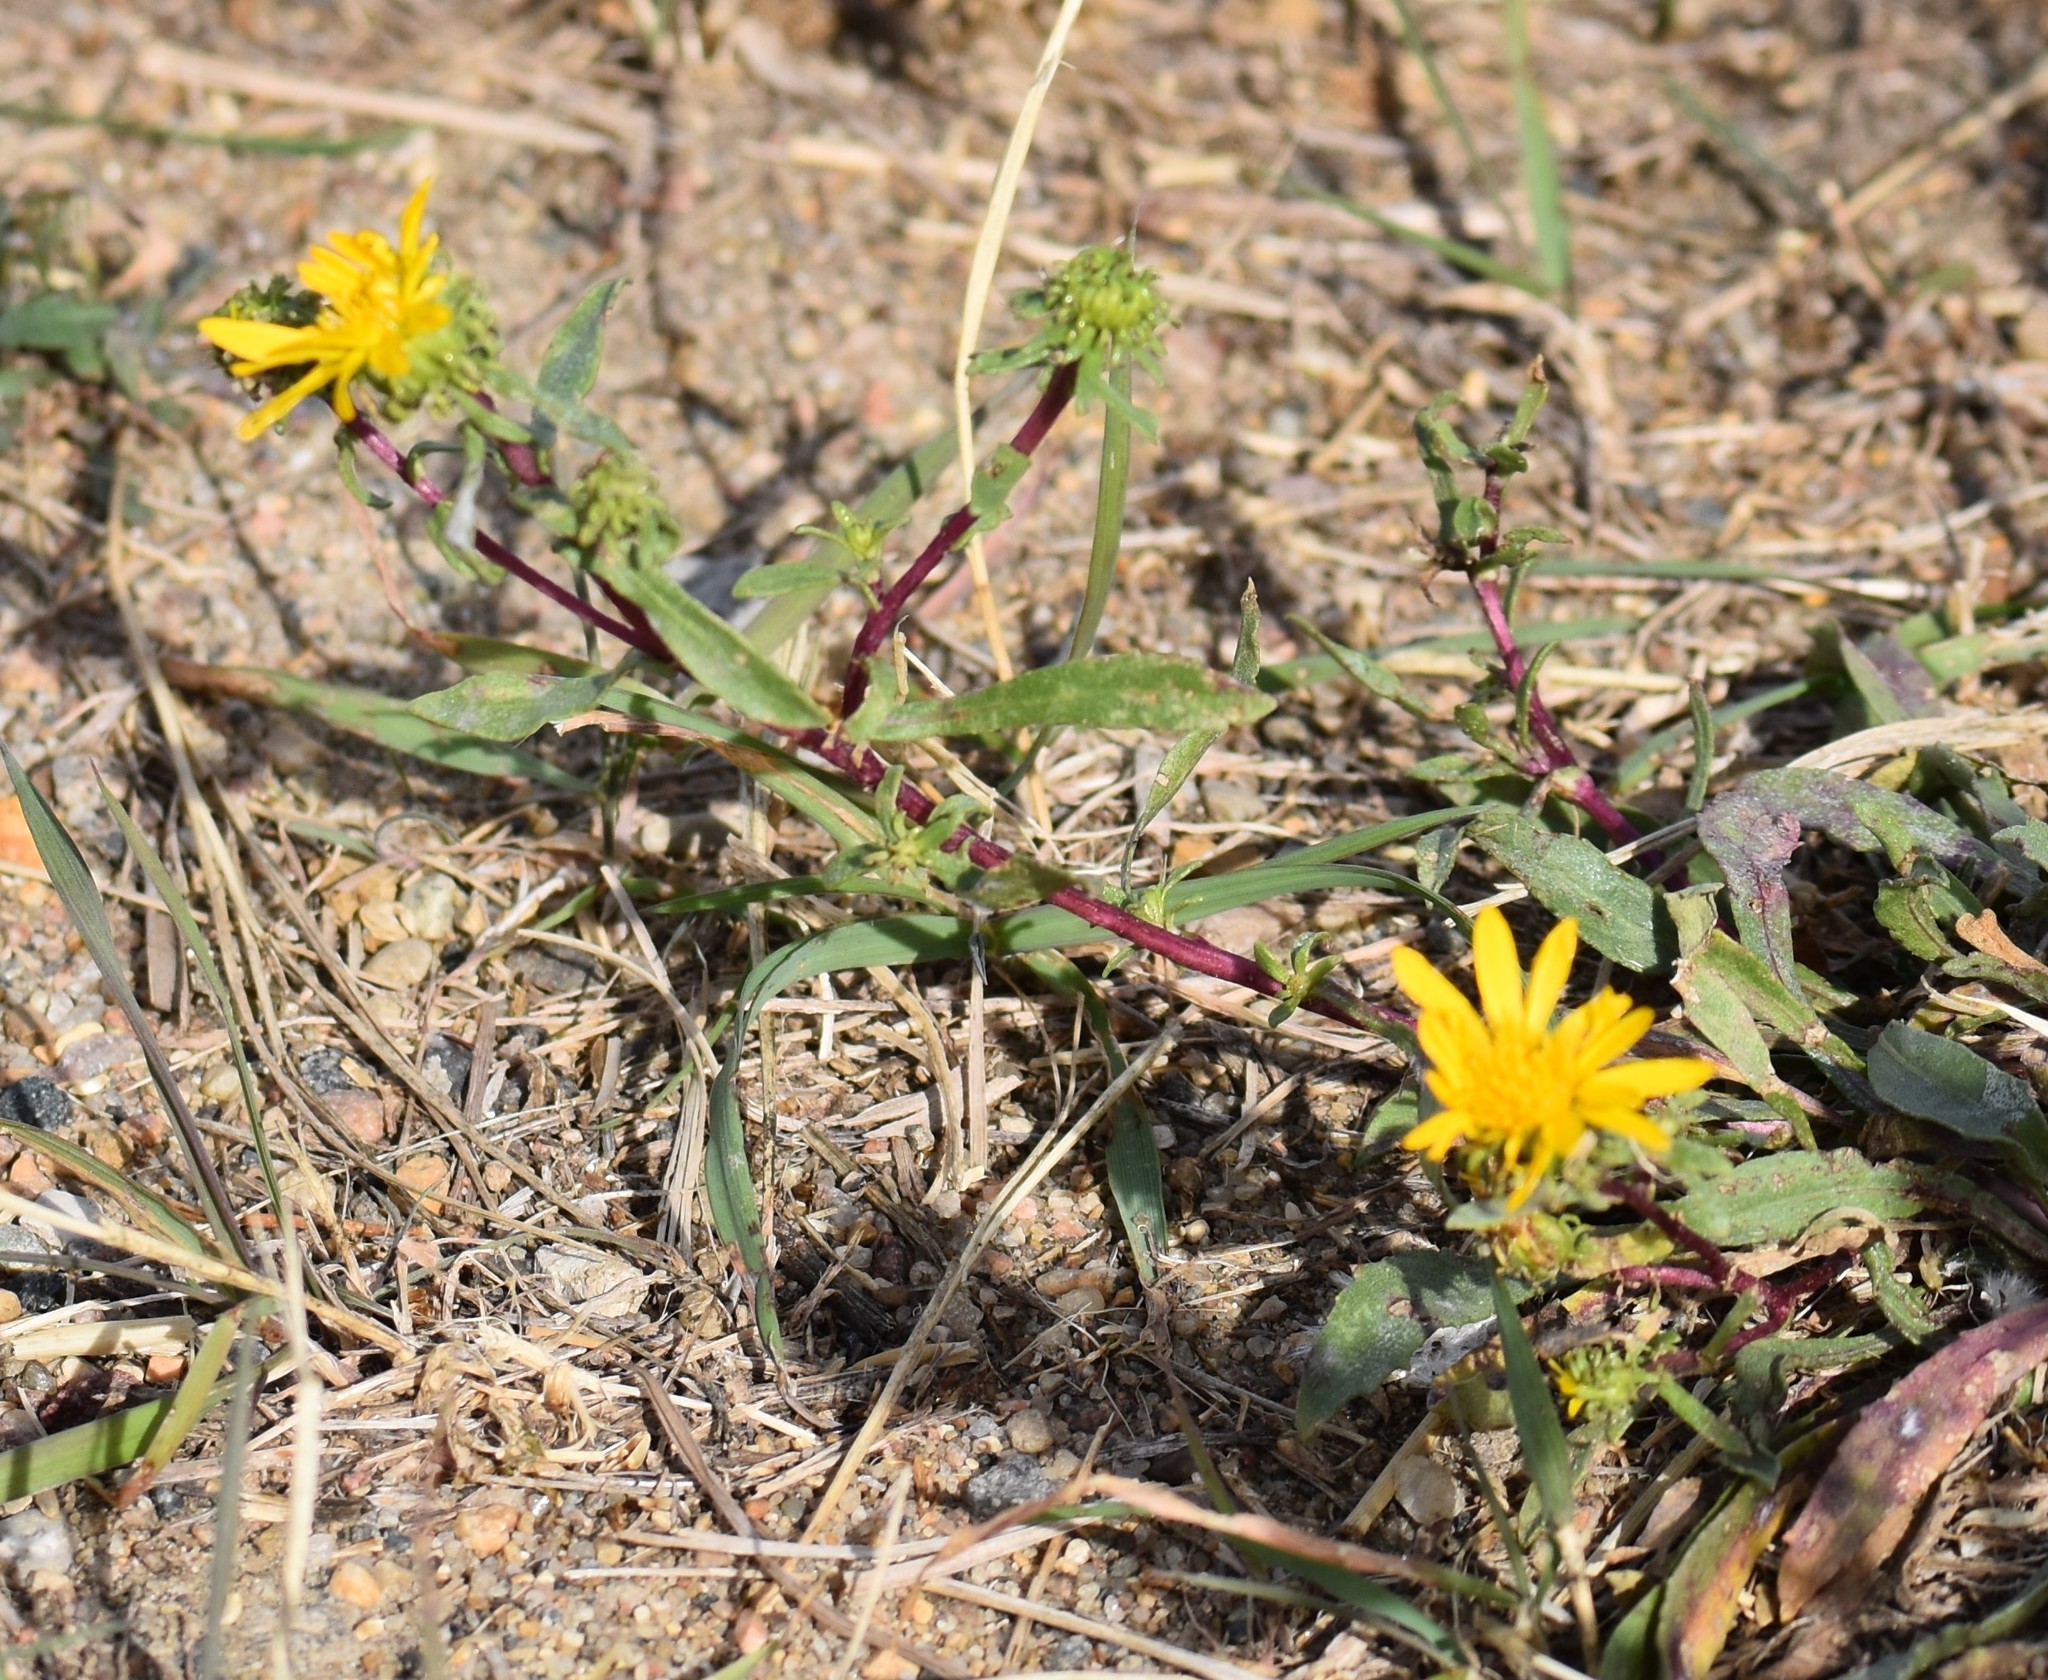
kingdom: Plantae
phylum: Tracheophyta
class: Magnoliopsida
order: Asterales
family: Asteraceae
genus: Grindelia
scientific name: Grindelia squarrosa
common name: Curly-cup gumweed
